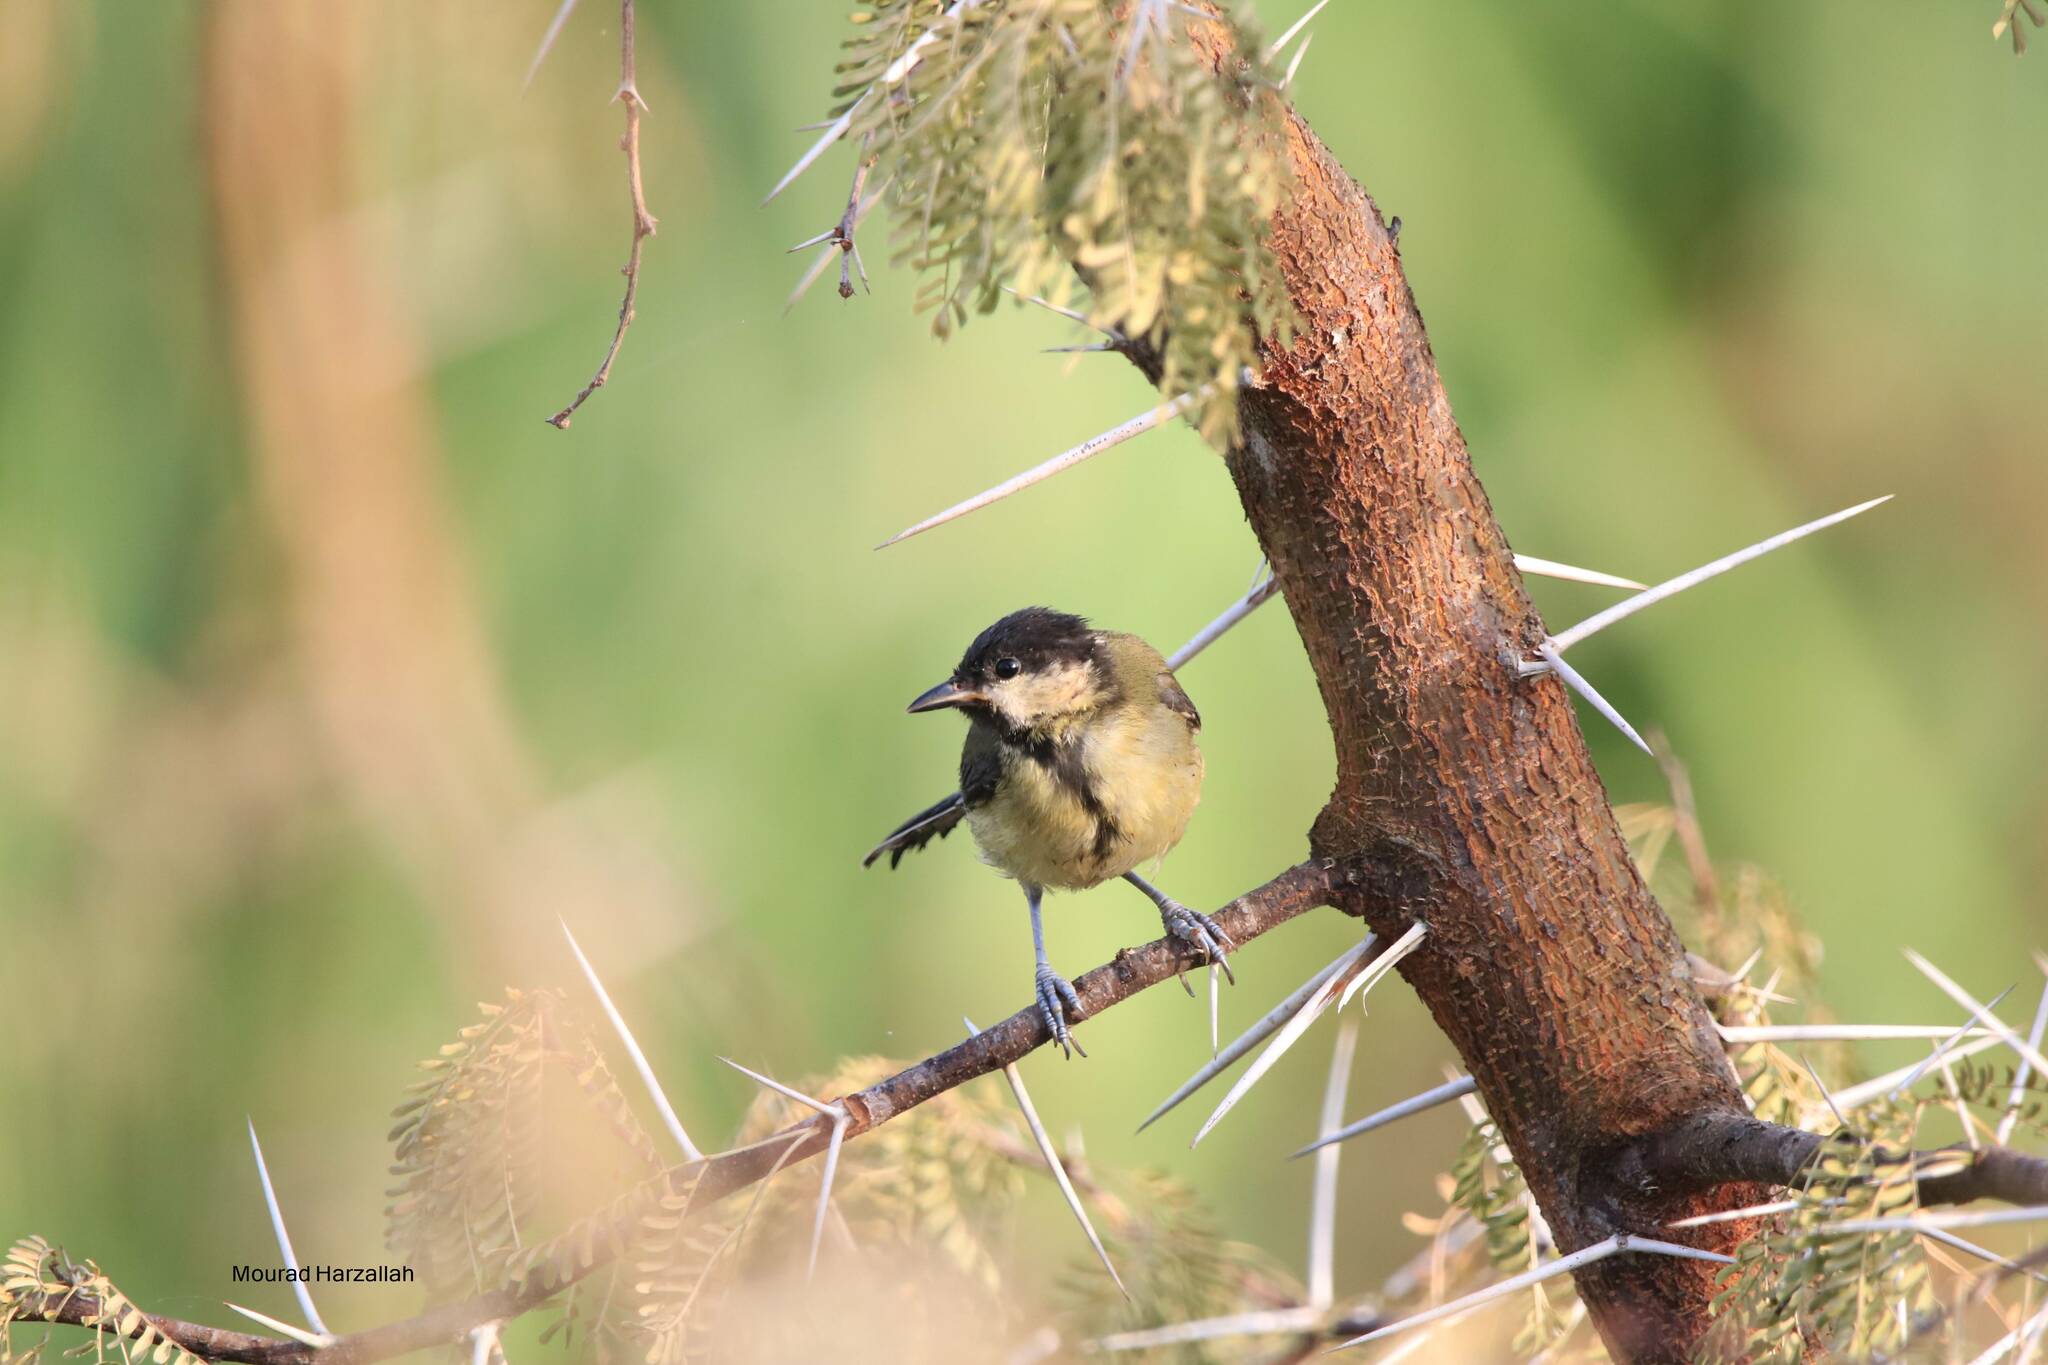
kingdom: Animalia
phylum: Chordata
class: Aves
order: Passeriformes
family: Paridae
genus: Parus
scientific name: Parus major
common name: Great tit
